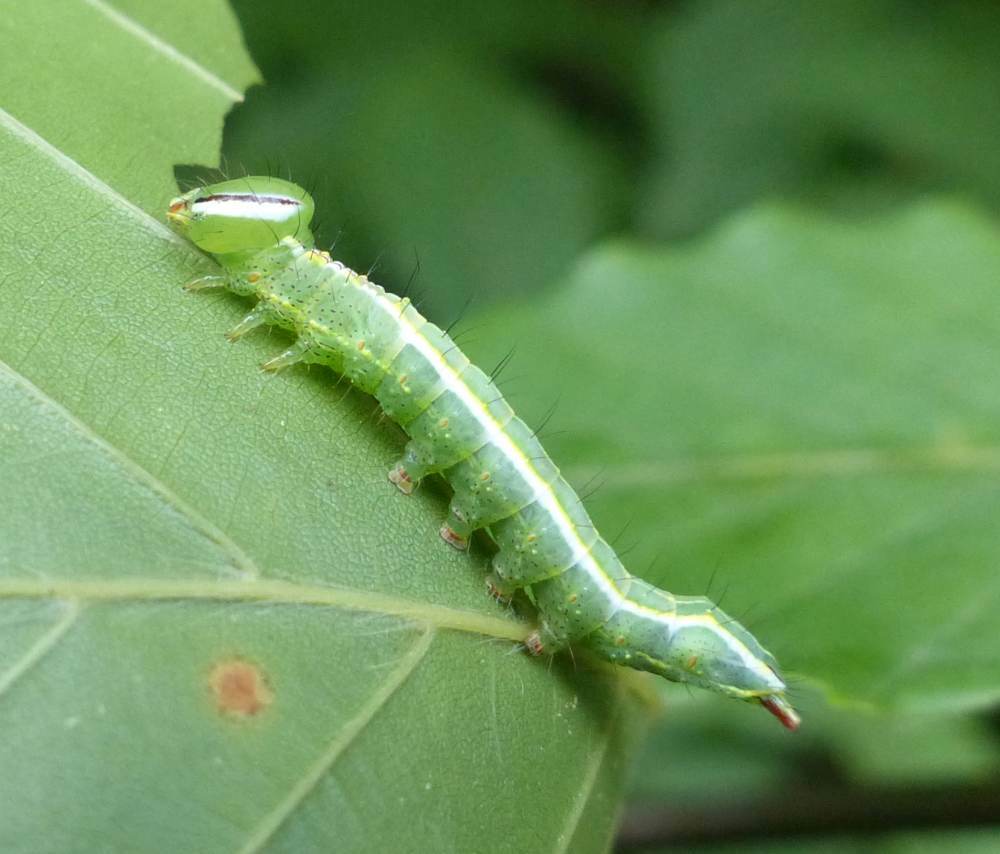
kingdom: Animalia
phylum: Arthropoda
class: Insecta
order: Lepidoptera
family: Notodontidae
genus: Lochmaeus
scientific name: Lochmaeus manteo
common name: Variable oakleaf caterpillar moth
